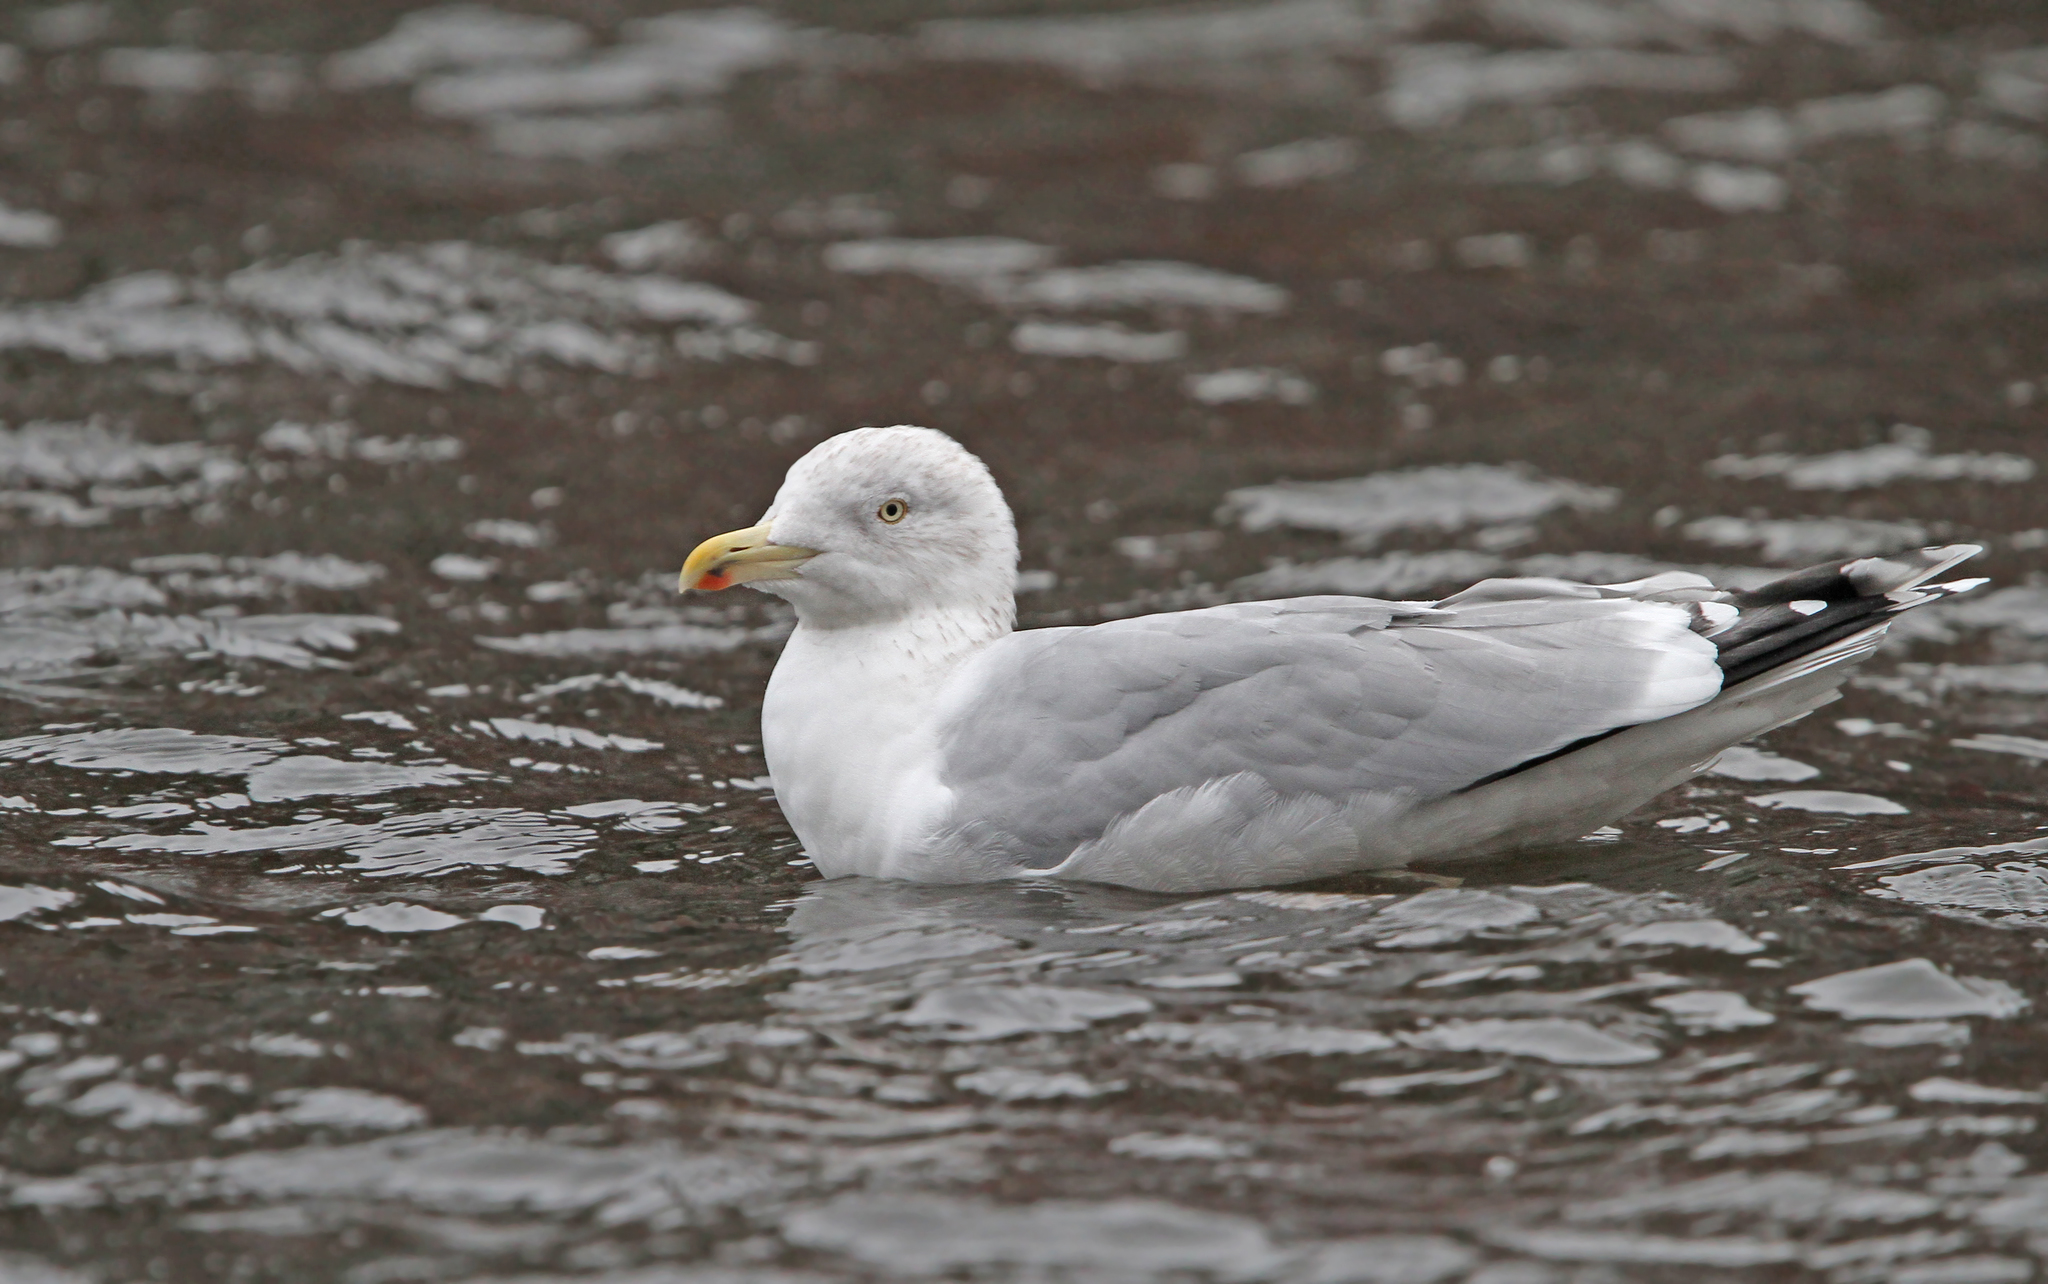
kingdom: Animalia
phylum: Chordata
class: Aves
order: Charadriiformes
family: Laridae
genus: Larus
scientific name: Larus argentatus
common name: Herring gull
